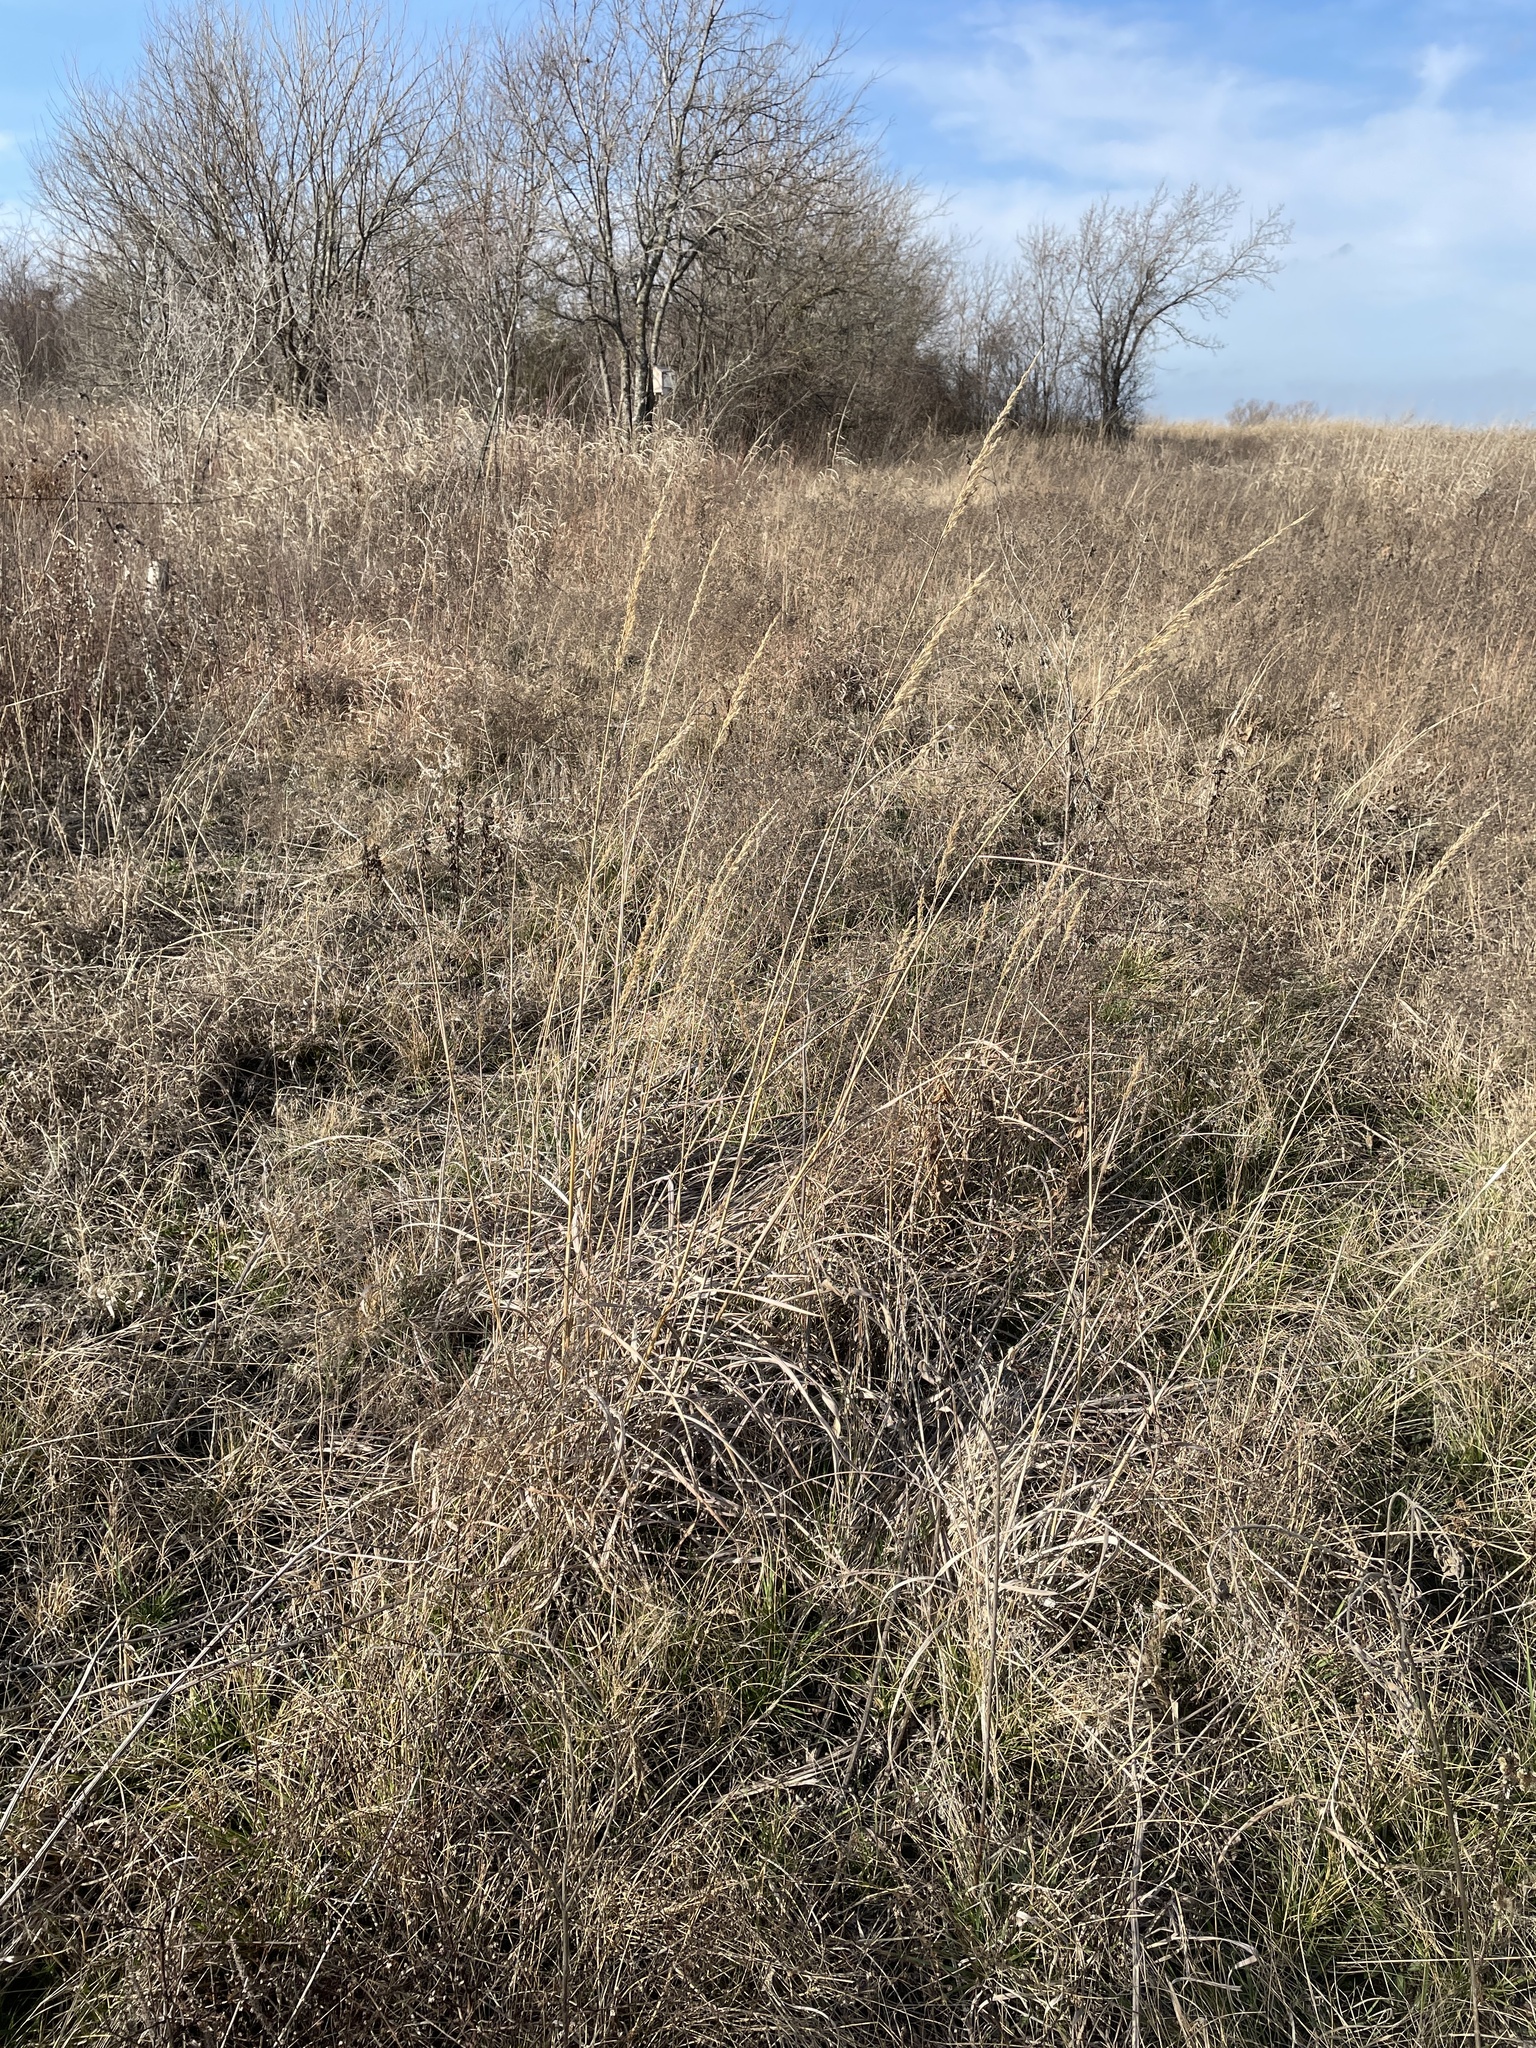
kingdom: Plantae
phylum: Tracheophyta
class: Liliopsida
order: Poales
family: Poaceae
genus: Sorghastrum
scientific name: Sorghastrum nutans
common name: Indian grass
